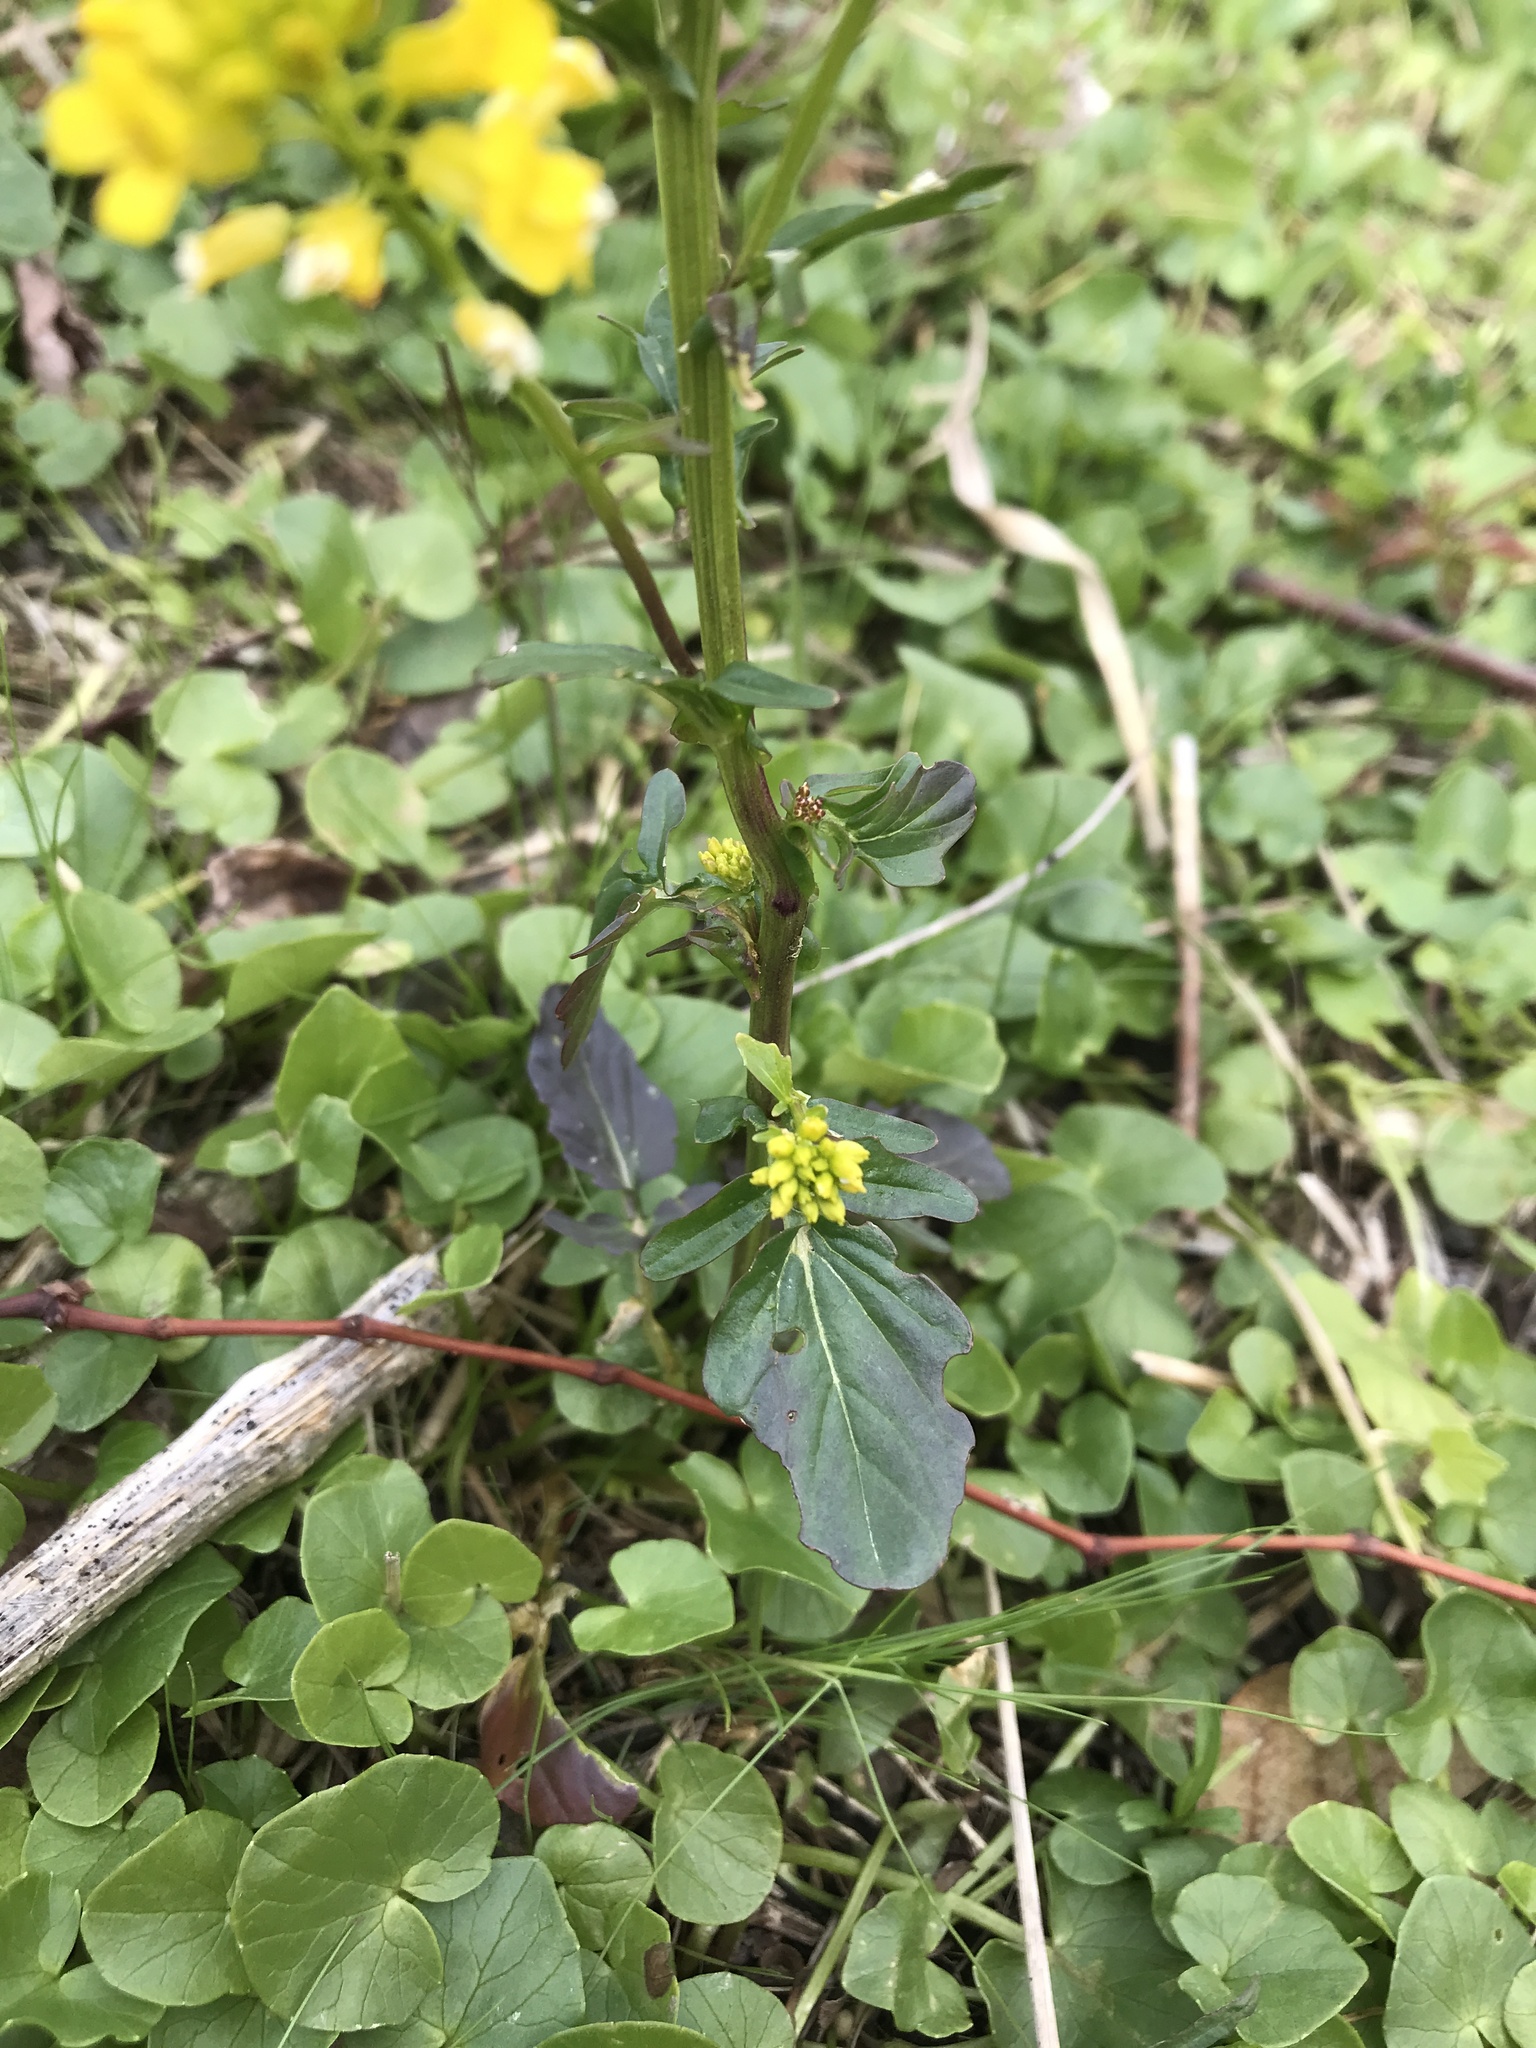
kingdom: Plantae
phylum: Tracheophyta
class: Magnoliopsida
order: Brassicales
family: Brassicaceae
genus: Barbarea
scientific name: Barbarea vulgaris
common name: Cressy-greens
